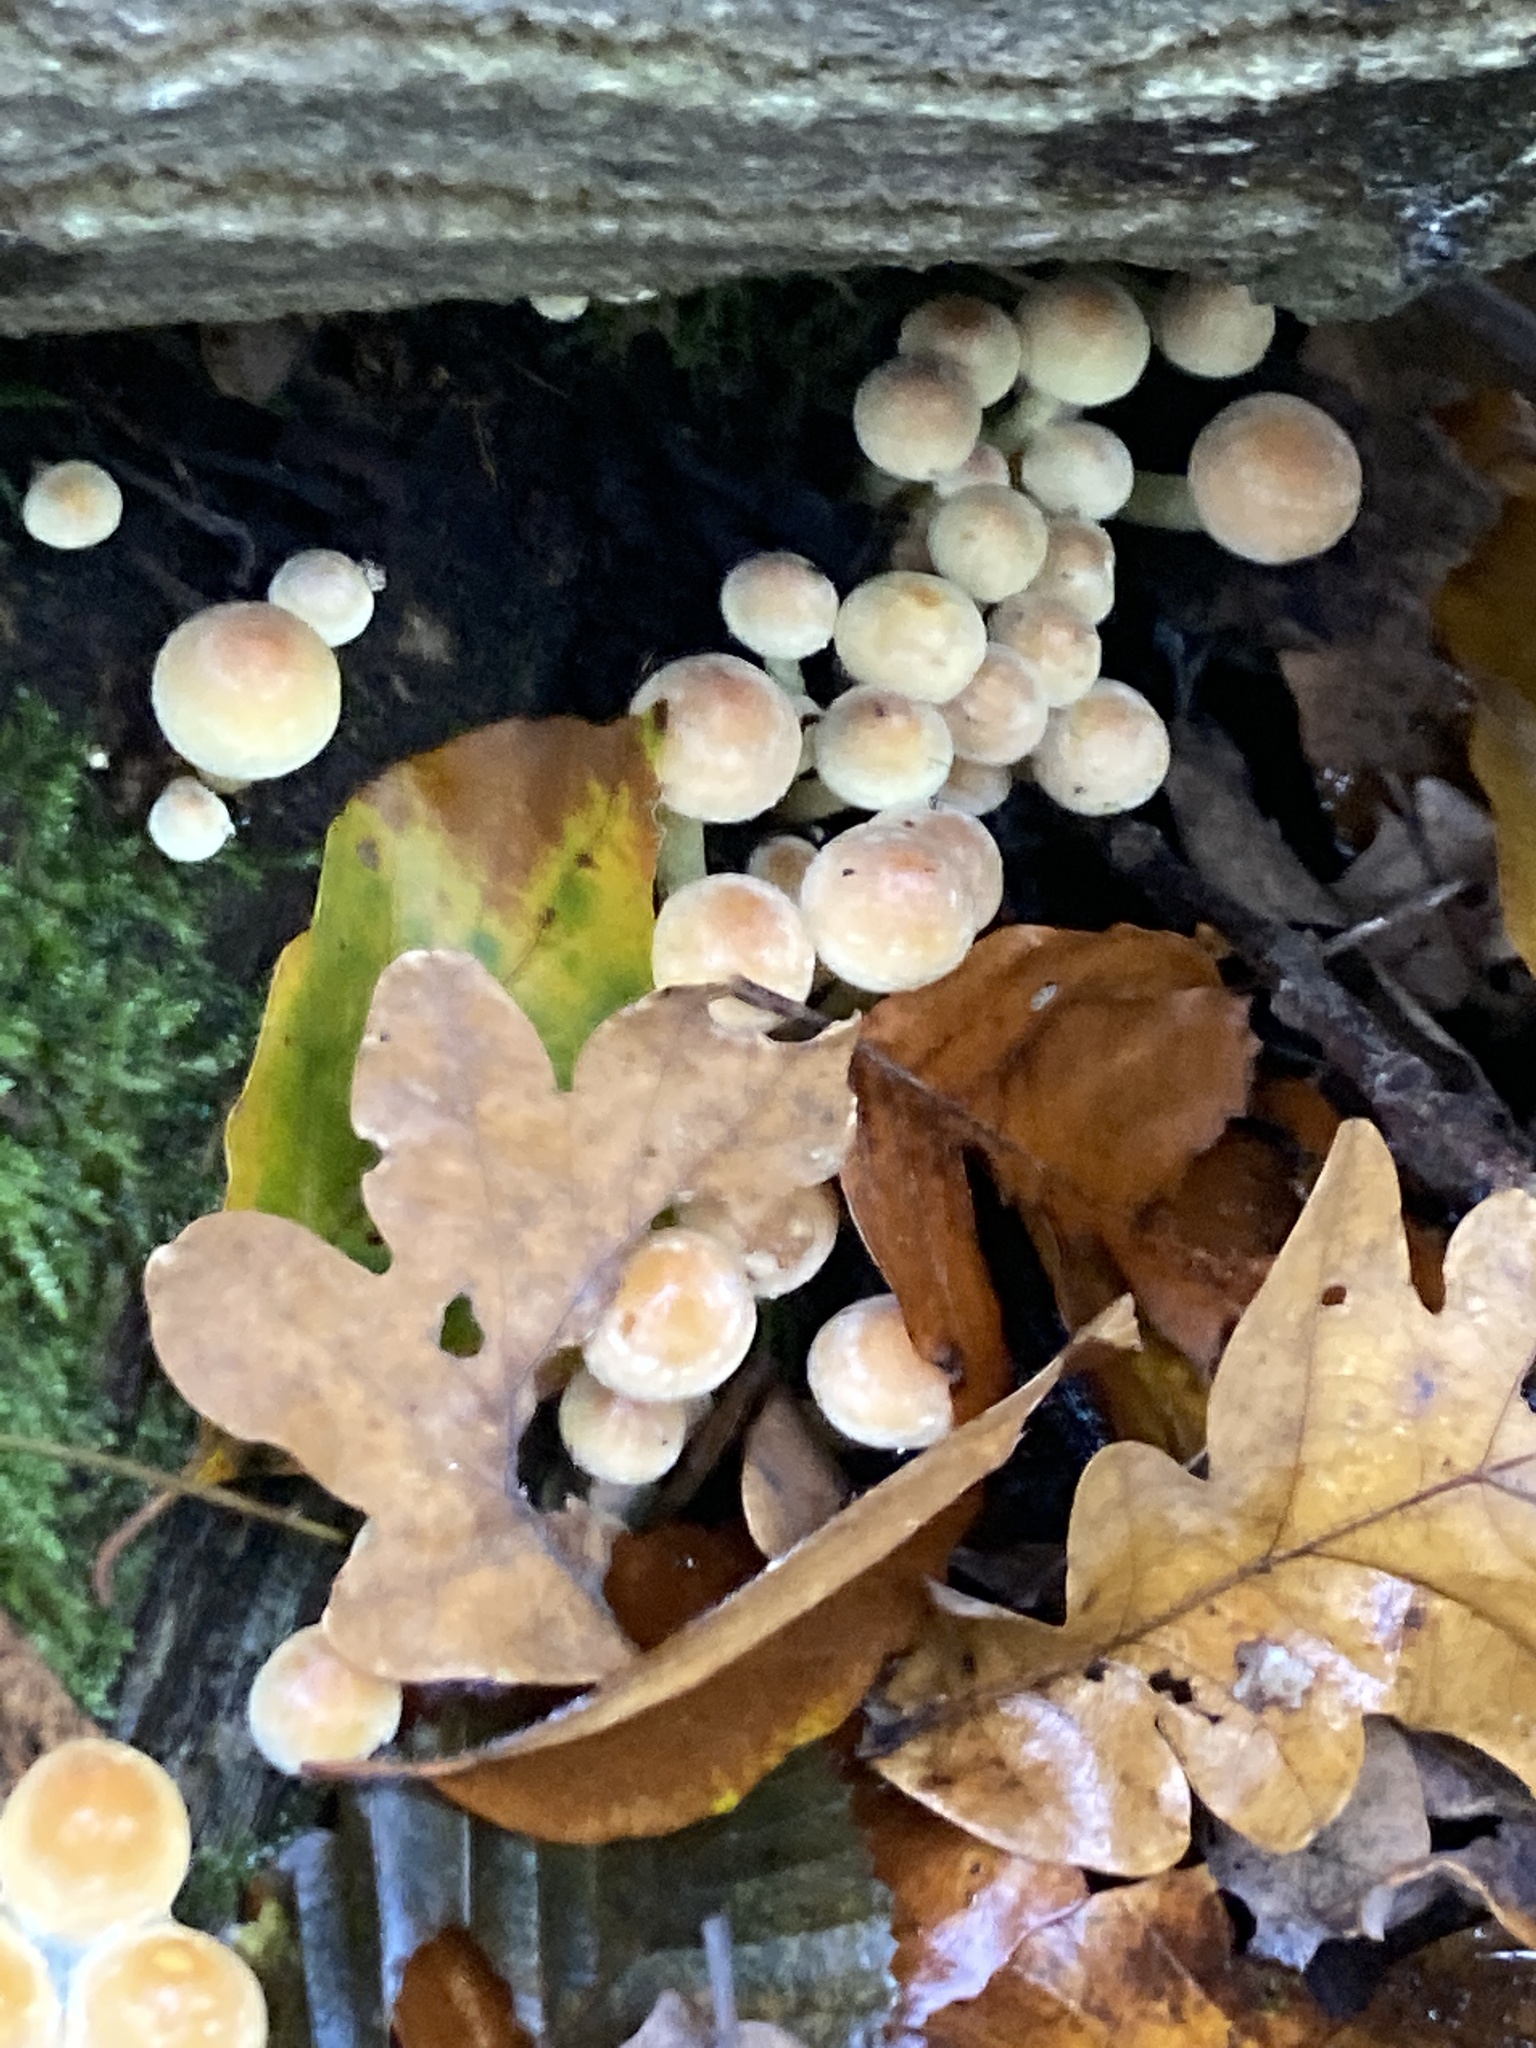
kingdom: Fungi
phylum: Basidiomycota
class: Agaricomycetes
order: Agaricales
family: Strophariaceae
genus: Hypholoma
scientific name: Hypholoma fasciculare
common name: Sulphur tuft
